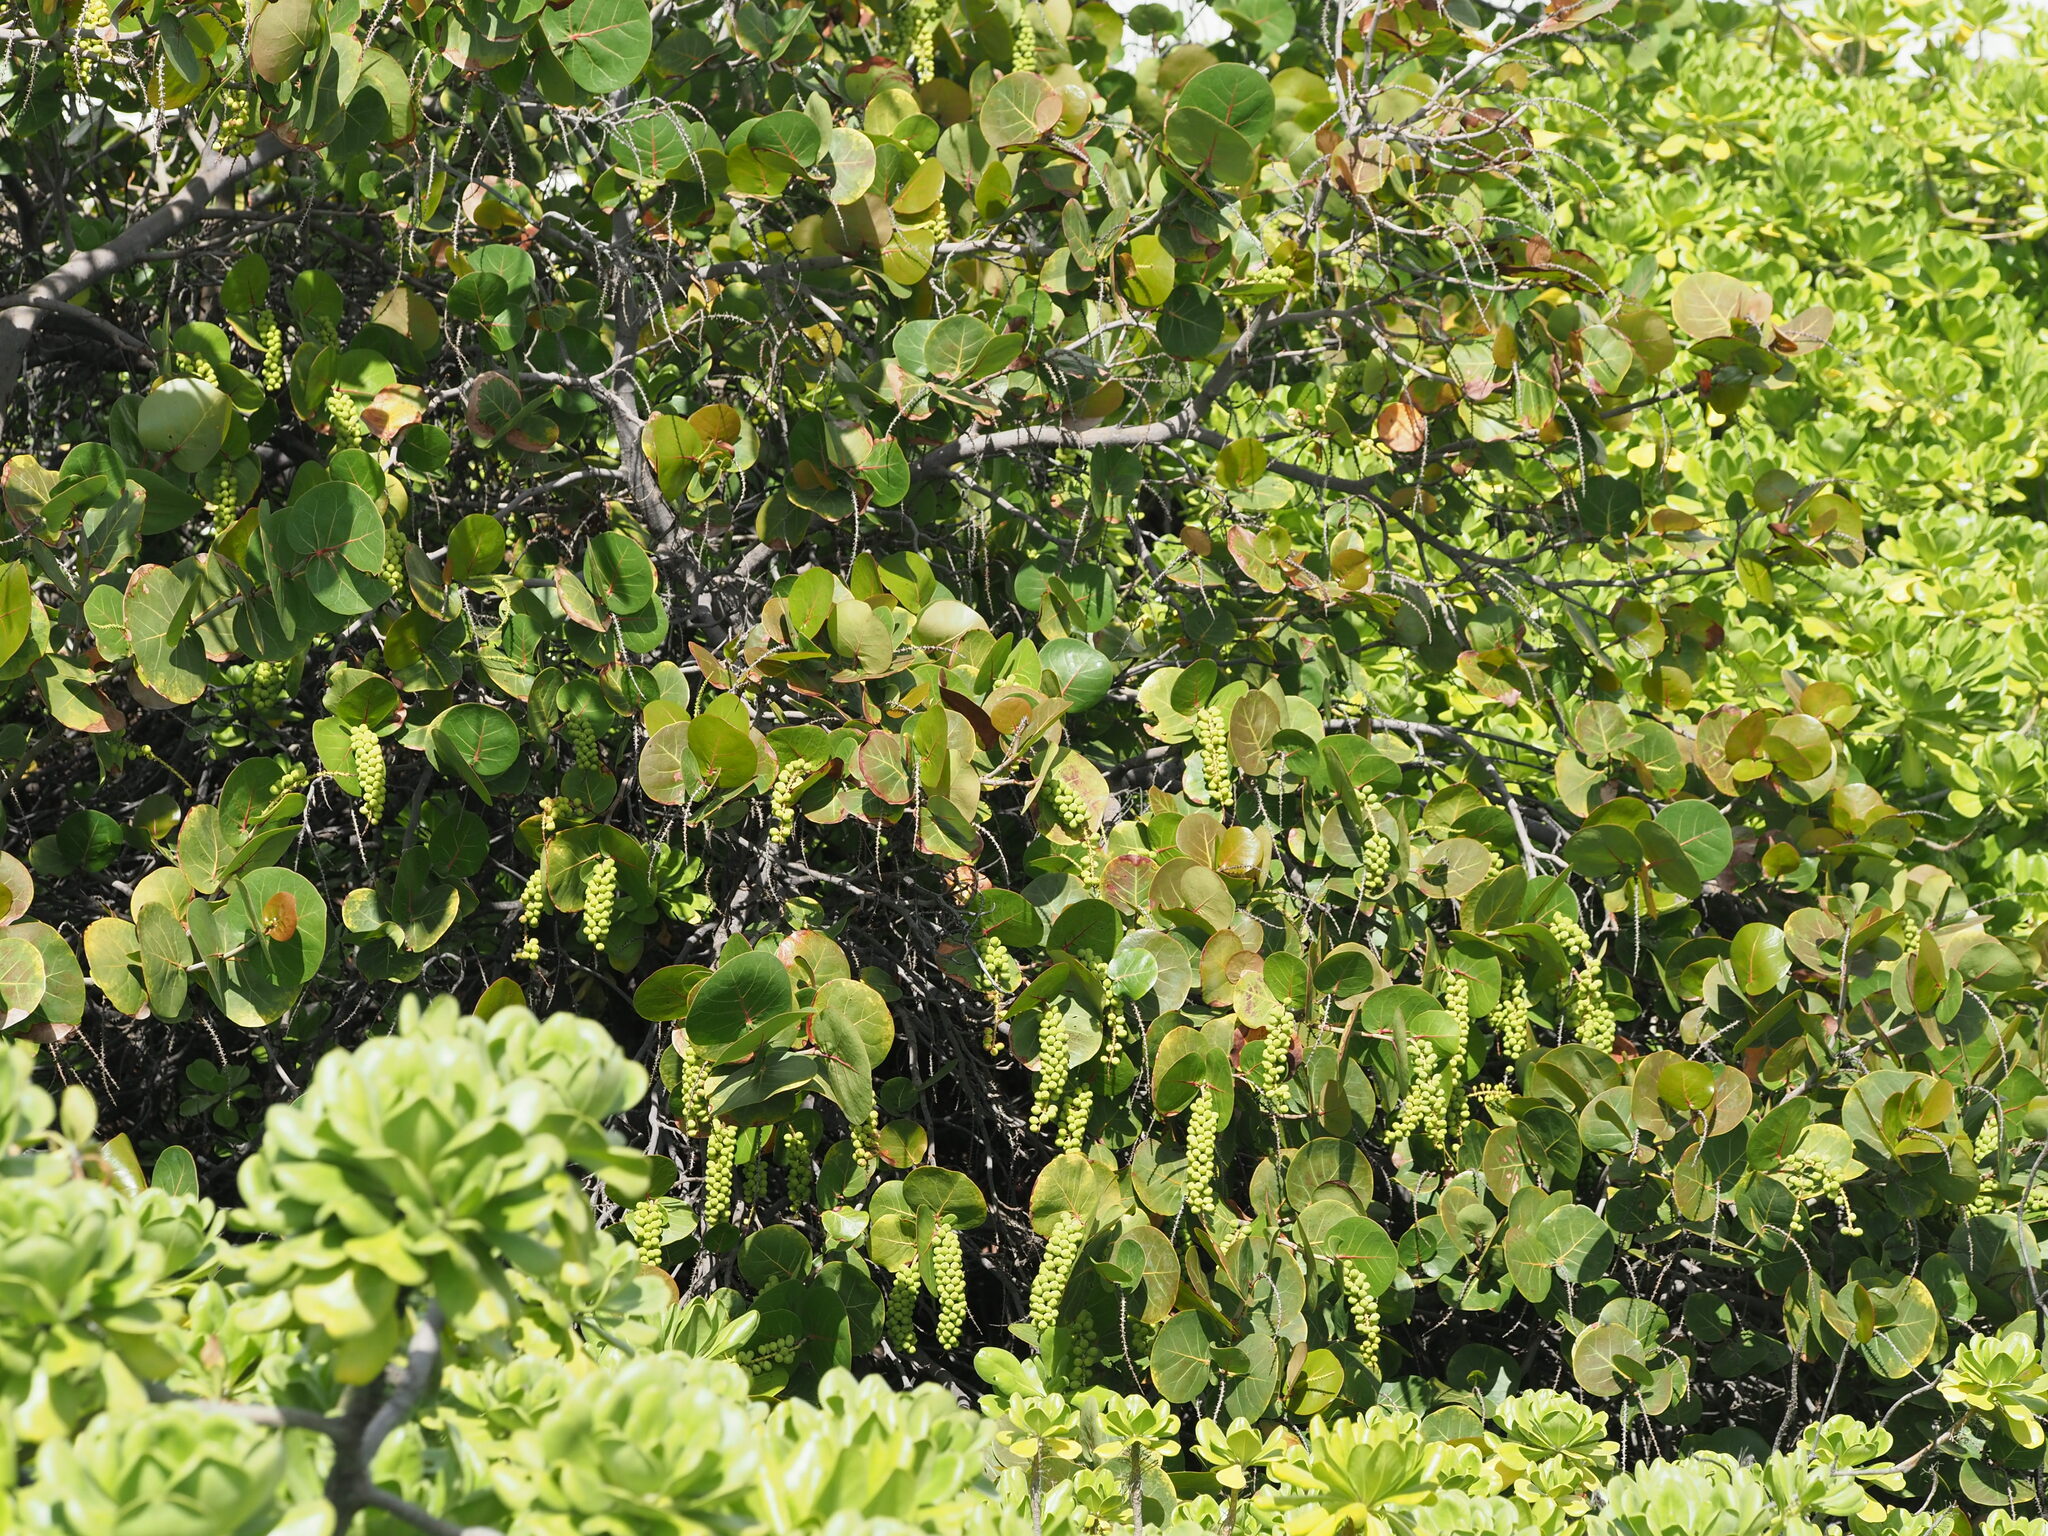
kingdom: Plantae
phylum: Tracheophyta
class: Magnoliopsida
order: Caryophyllales
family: Polygonaceae
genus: Coccoloba
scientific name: Coccoloba uvifera
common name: Seagrape
